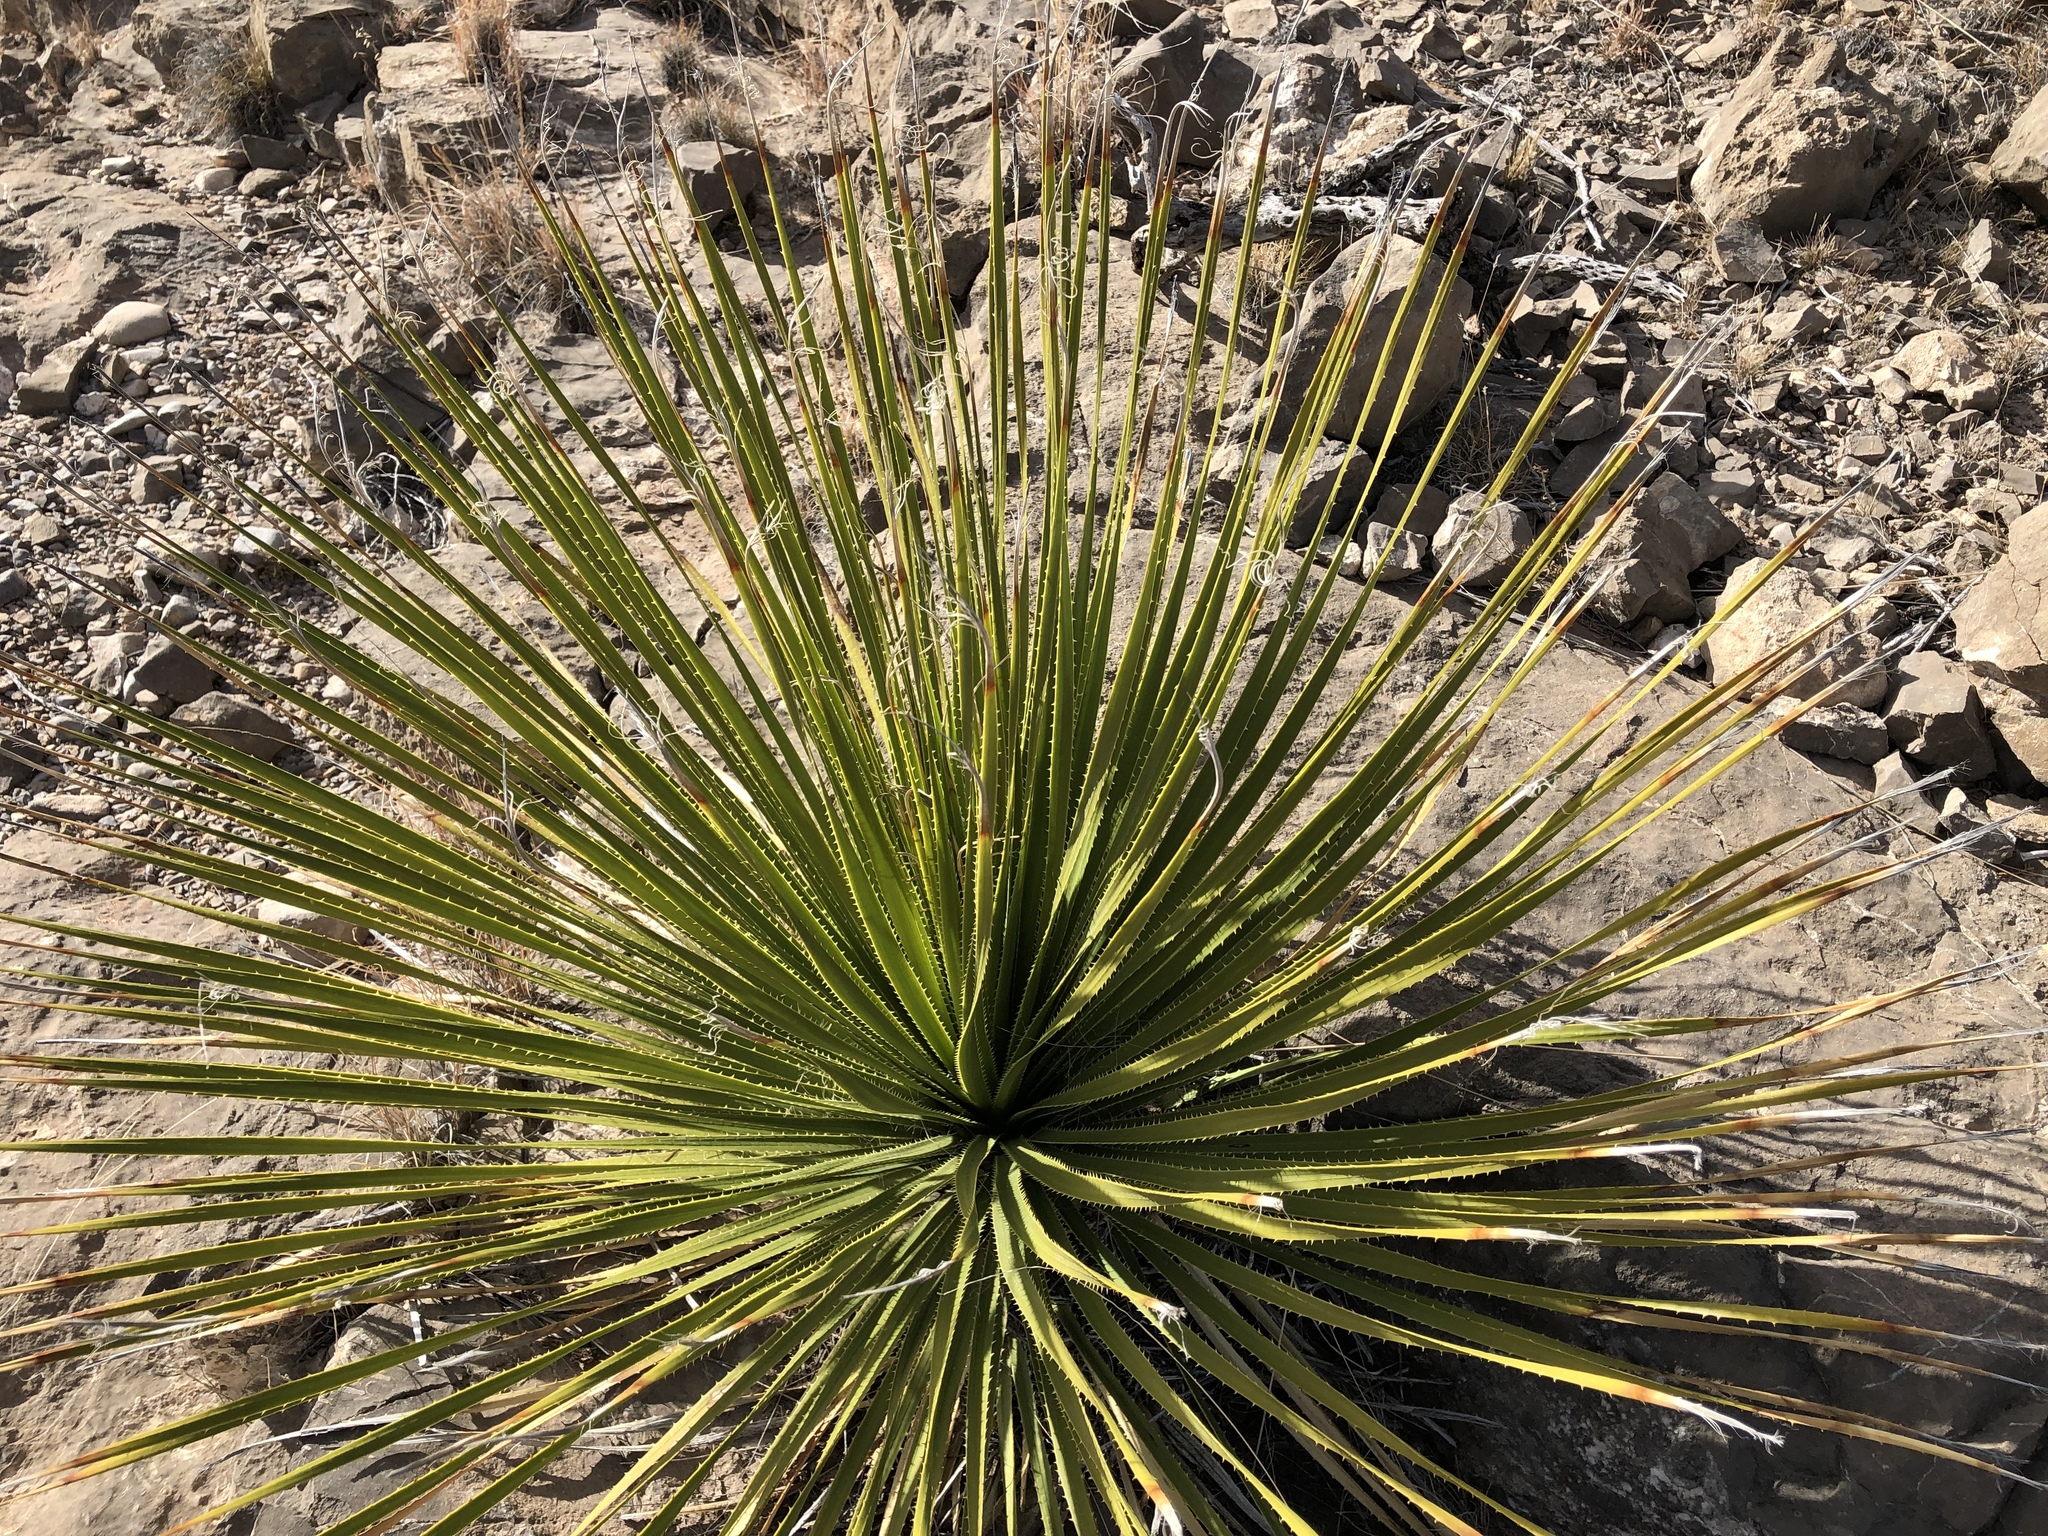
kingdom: Plantae
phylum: Tracheophyta
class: Liliopsida
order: Asparagales
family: Asparagaceae
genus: Dasylirion
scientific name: Dasylirion wheeleri
